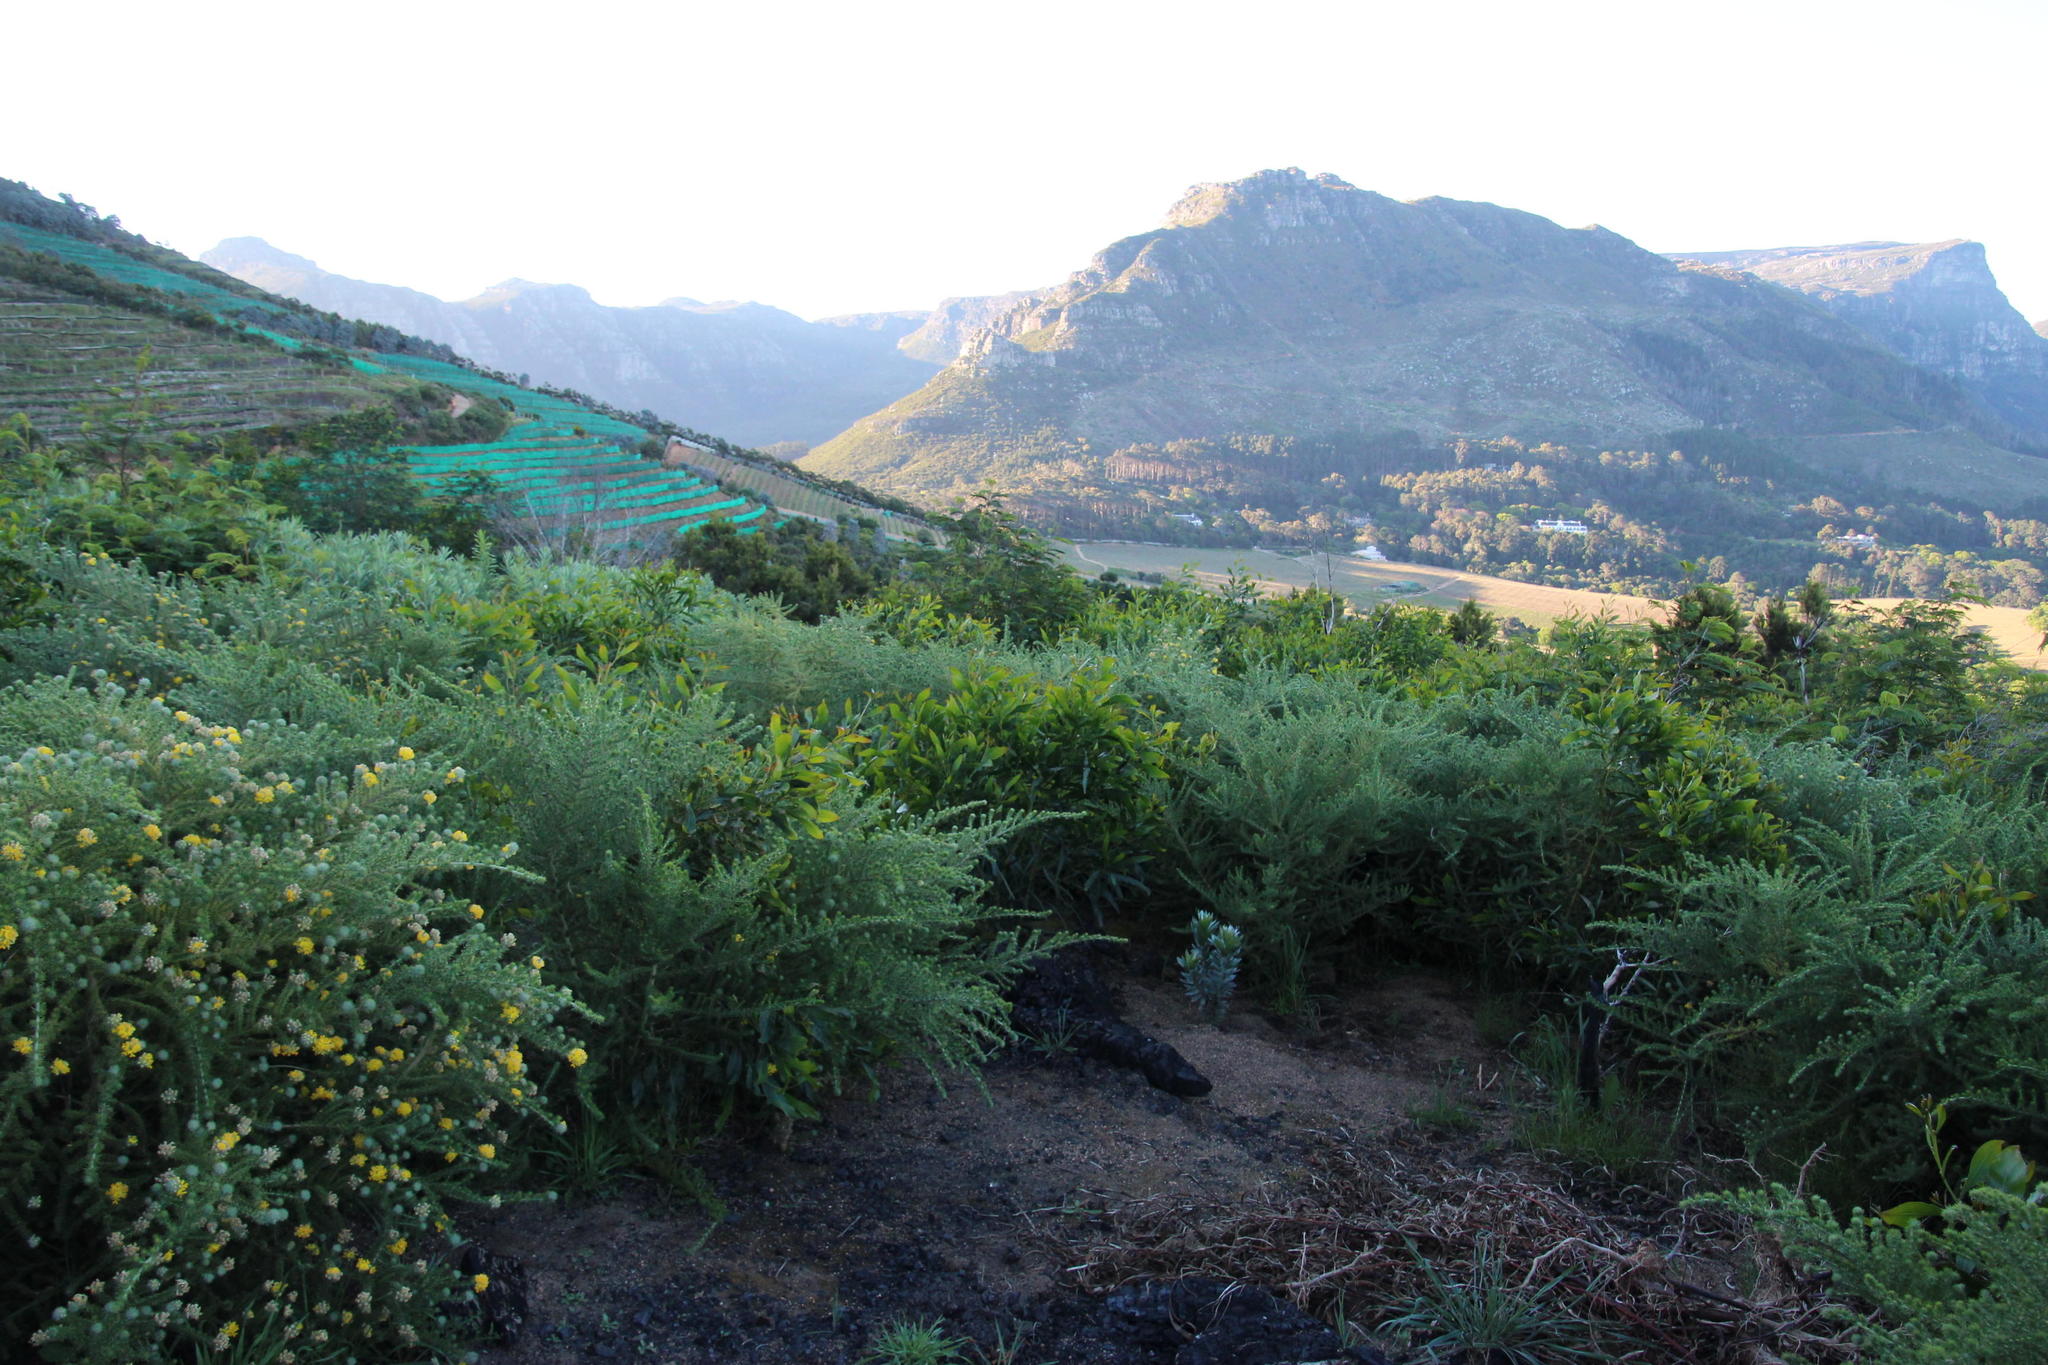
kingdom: Plantae
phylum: Tracheophyta
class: Magnoliopsida
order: Fabales
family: Fabaceae
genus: Aspalathus
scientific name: Aspalathus chenopoda
